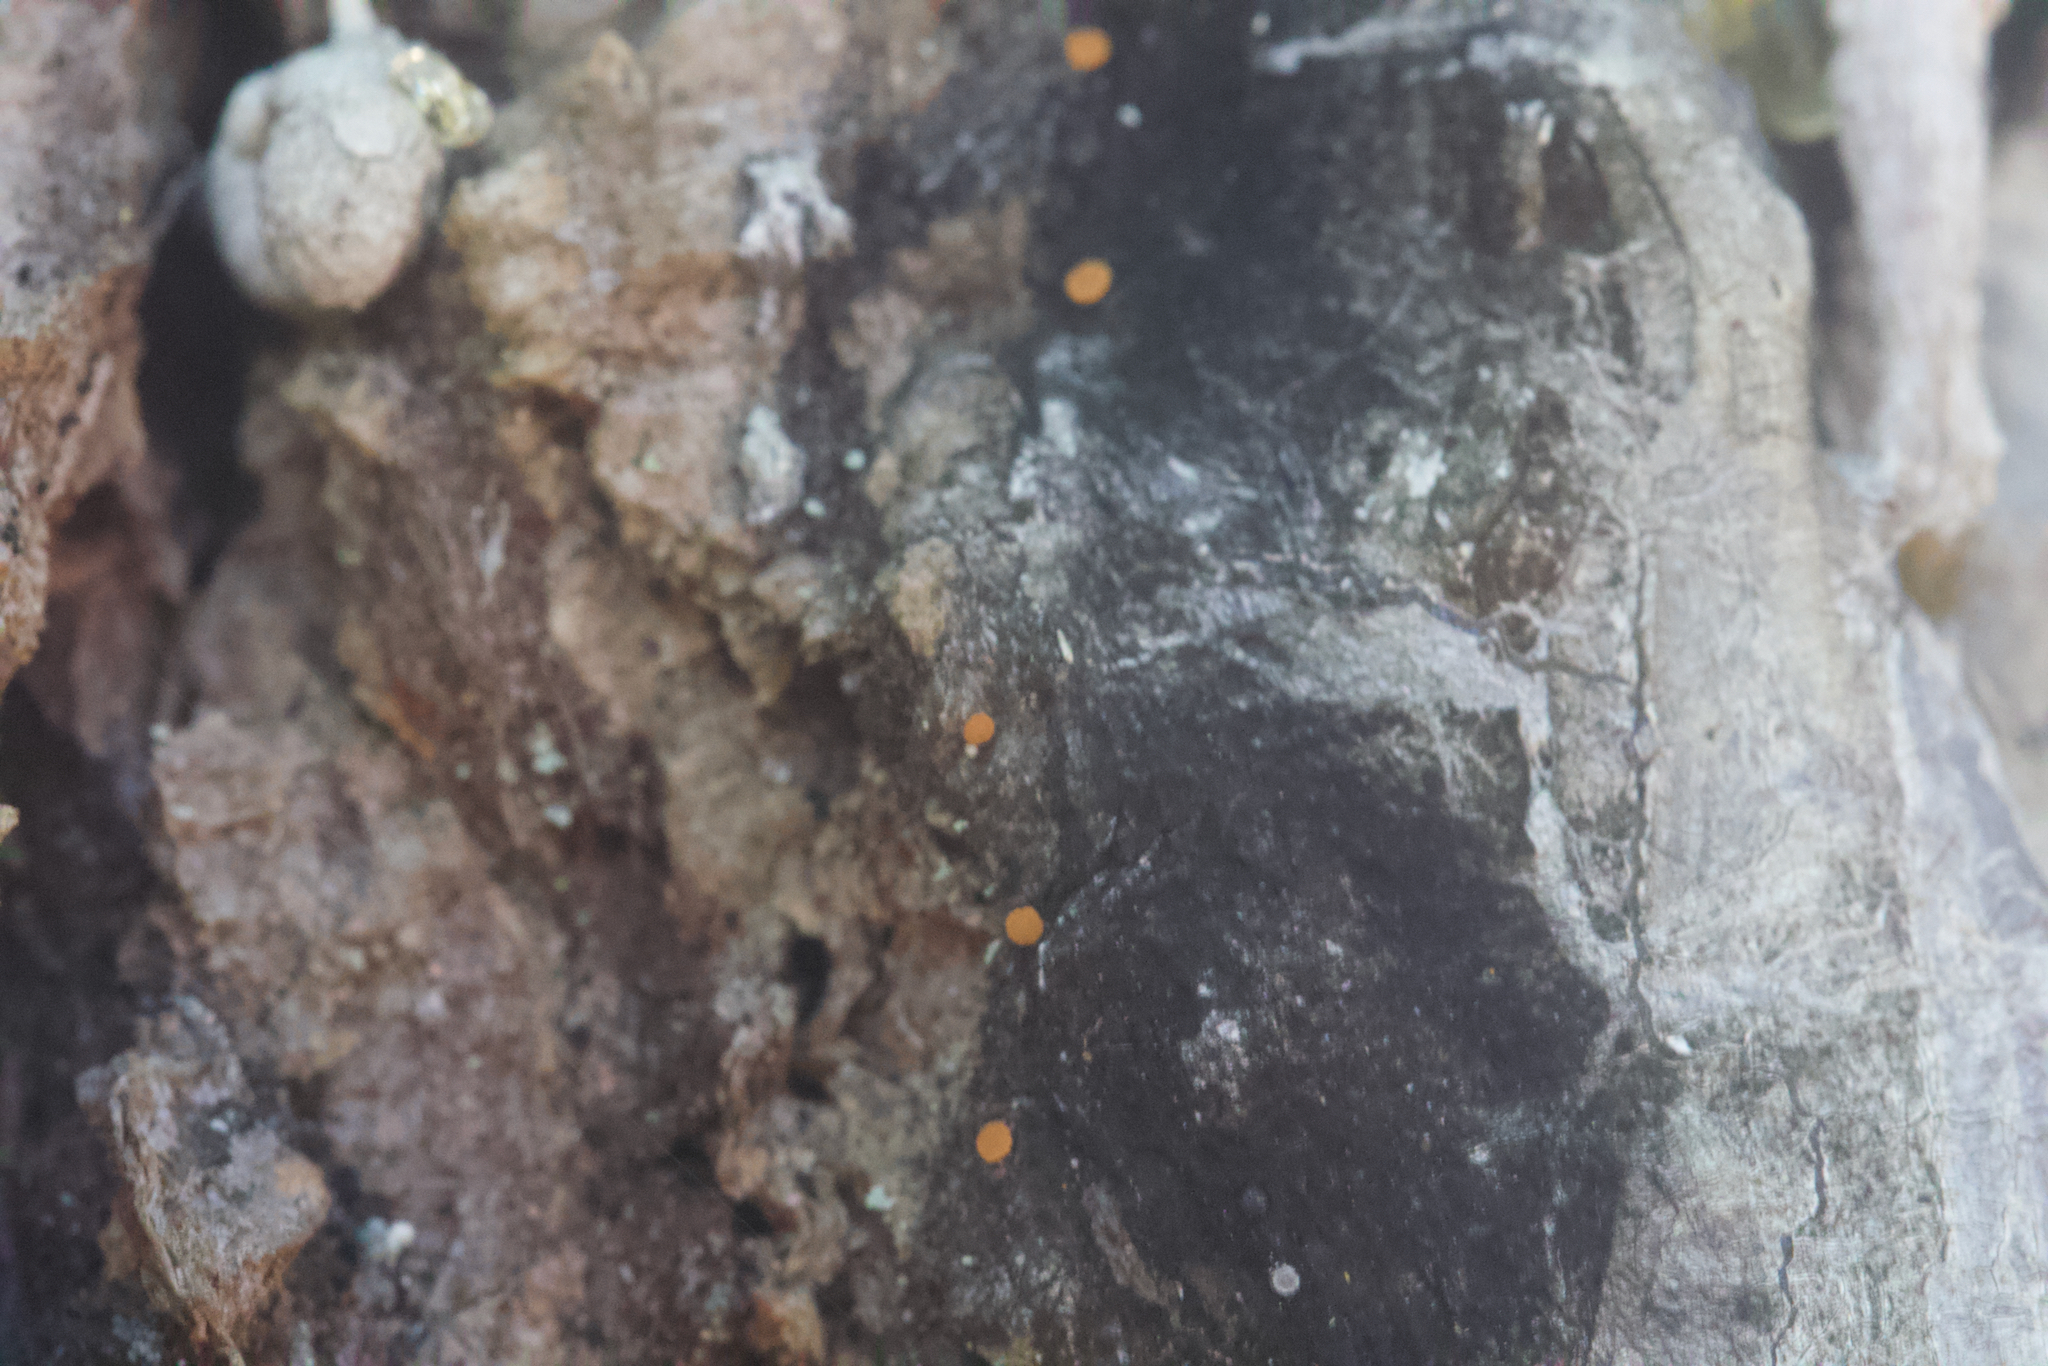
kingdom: Fungi
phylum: Ascomycota
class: Sareomycetes
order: Sareales
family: Sareaceae
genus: Sarea
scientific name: Sarea resinae
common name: Sarea lichen
